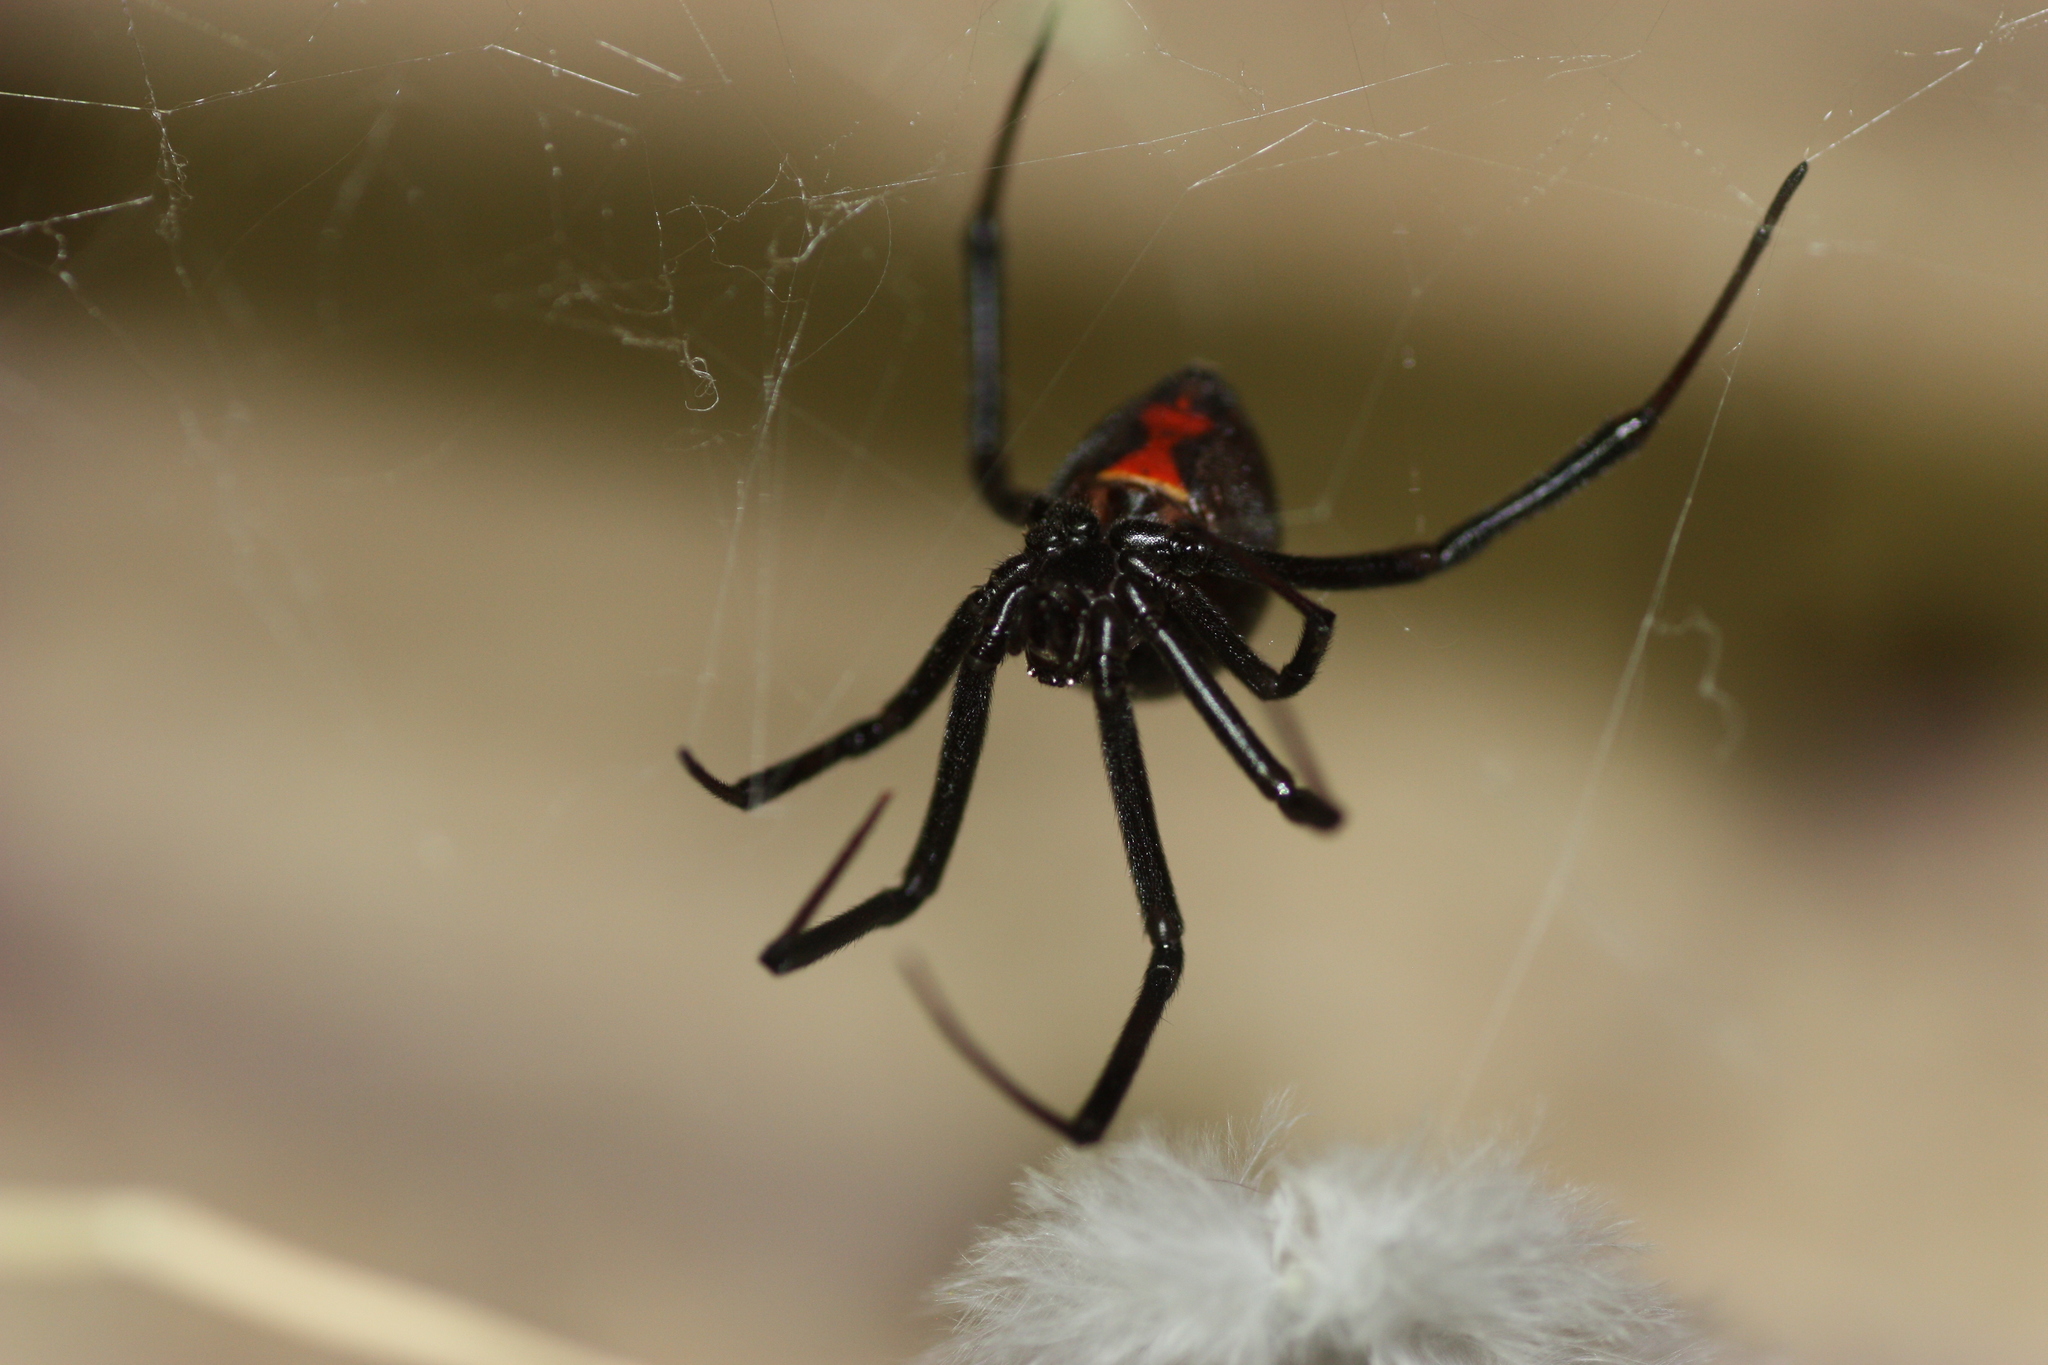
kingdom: Animalia
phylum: Arthropoda
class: Arachnida
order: Araneae
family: Theridiidae
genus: Latrodectus
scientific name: Latrodectus hesperus
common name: Western black widow
